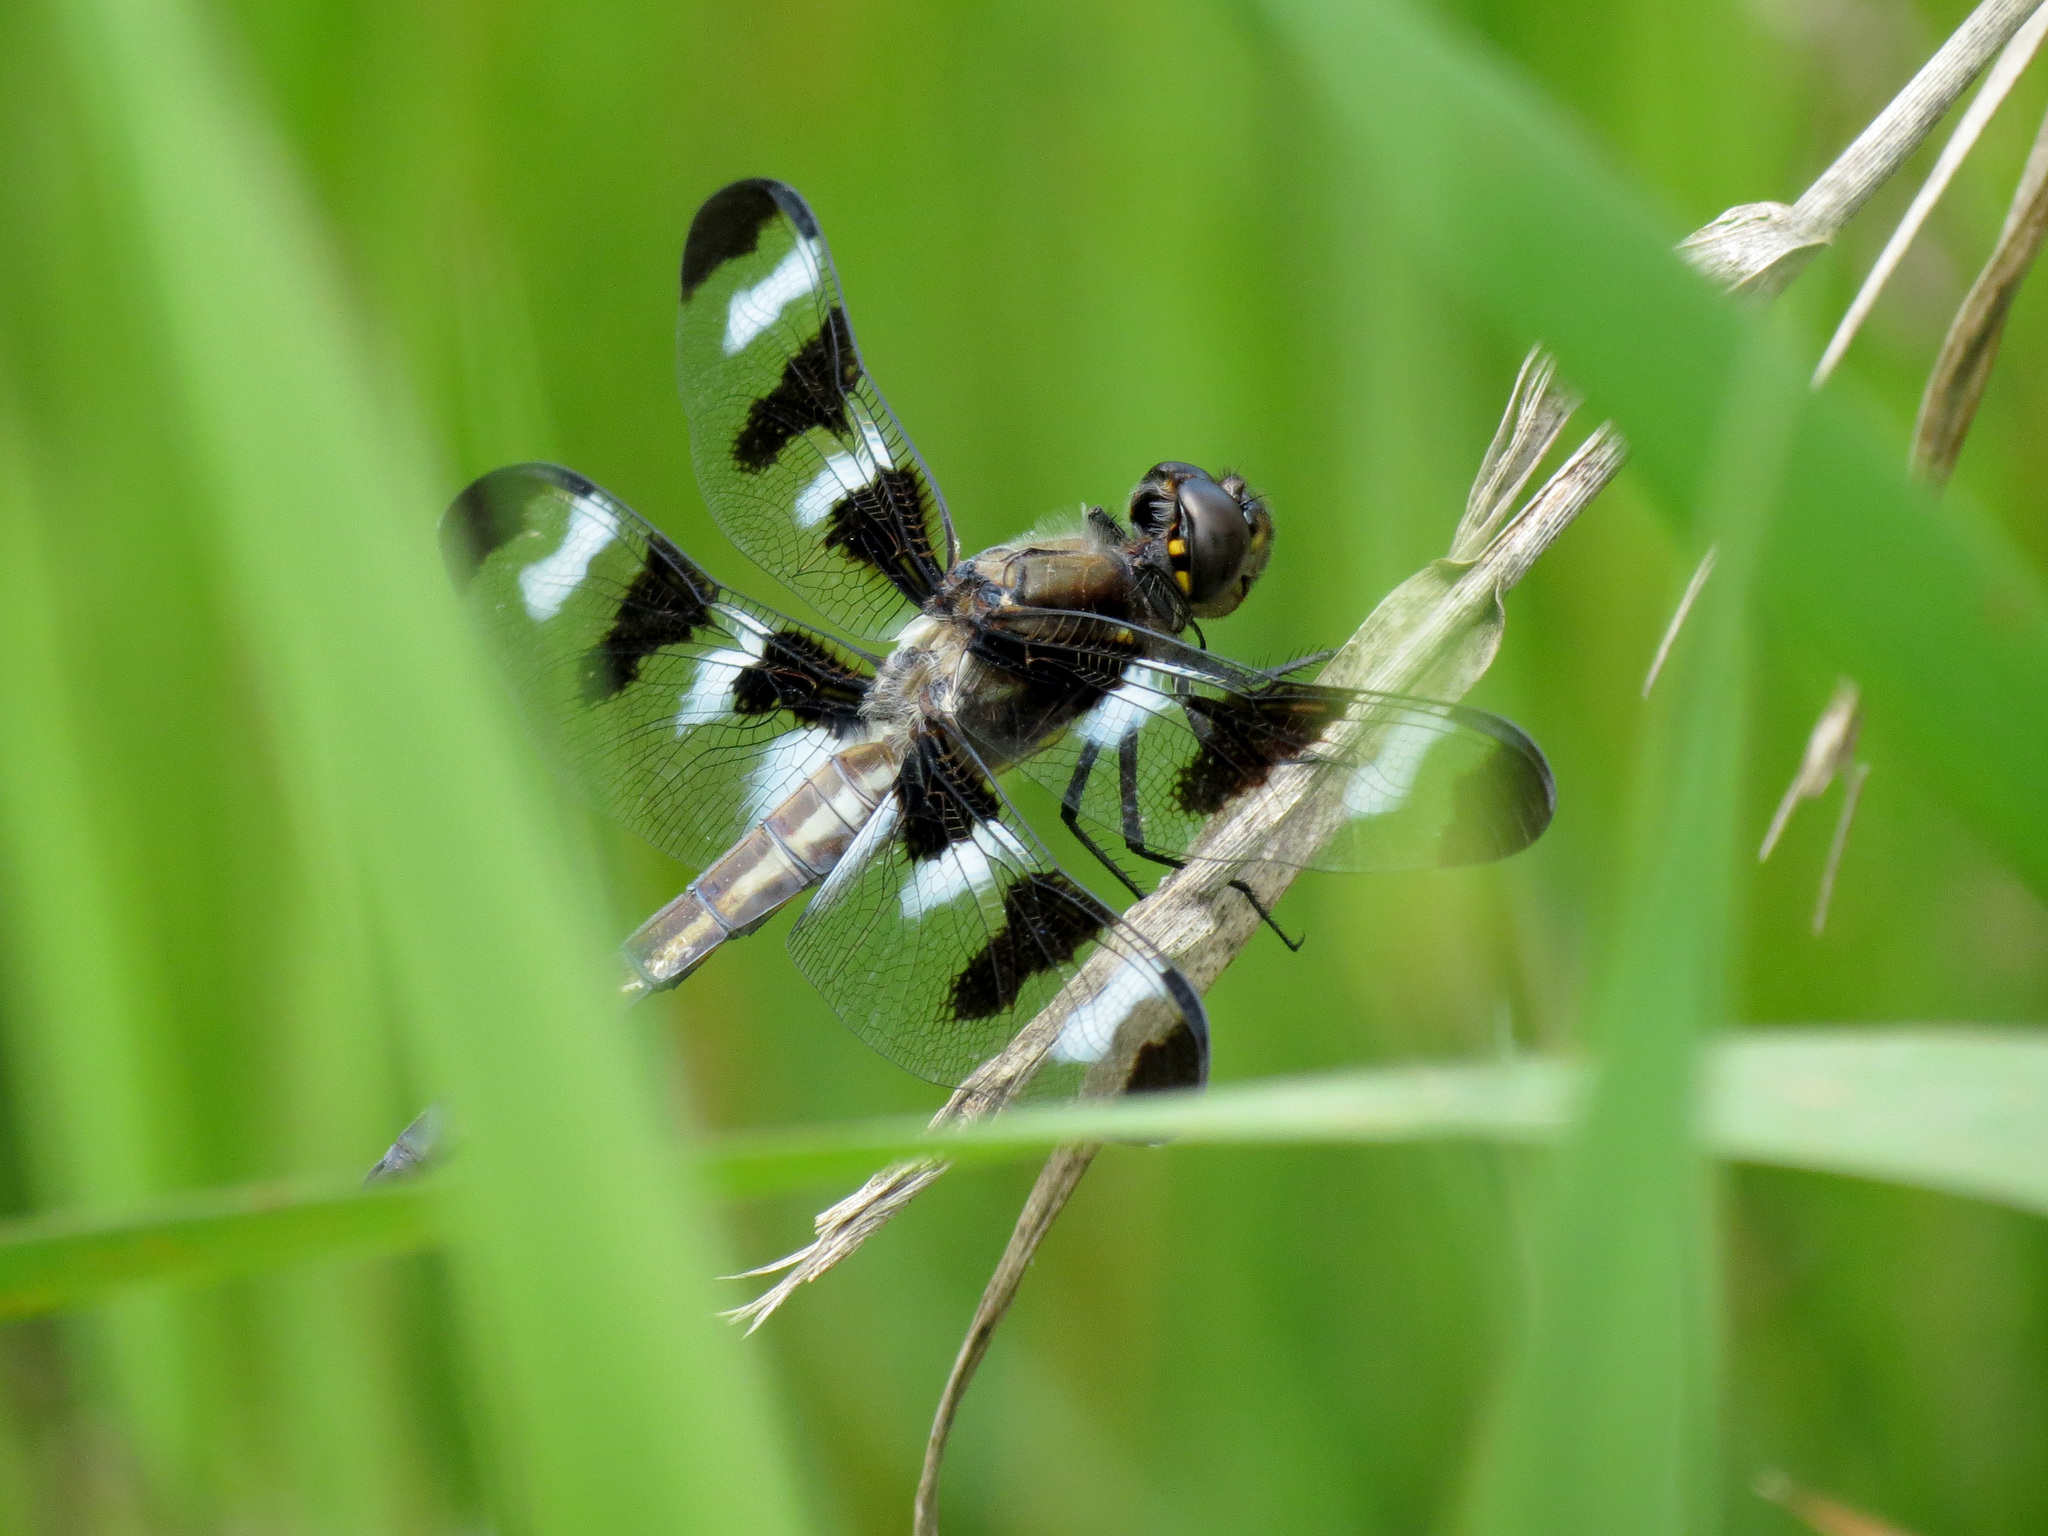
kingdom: Animalia
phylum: Arthropoda
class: Insecta
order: Odonata
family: Libellulidae
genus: Libellula
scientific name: Libellula pulchella
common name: Twelve-spotted skimmer
